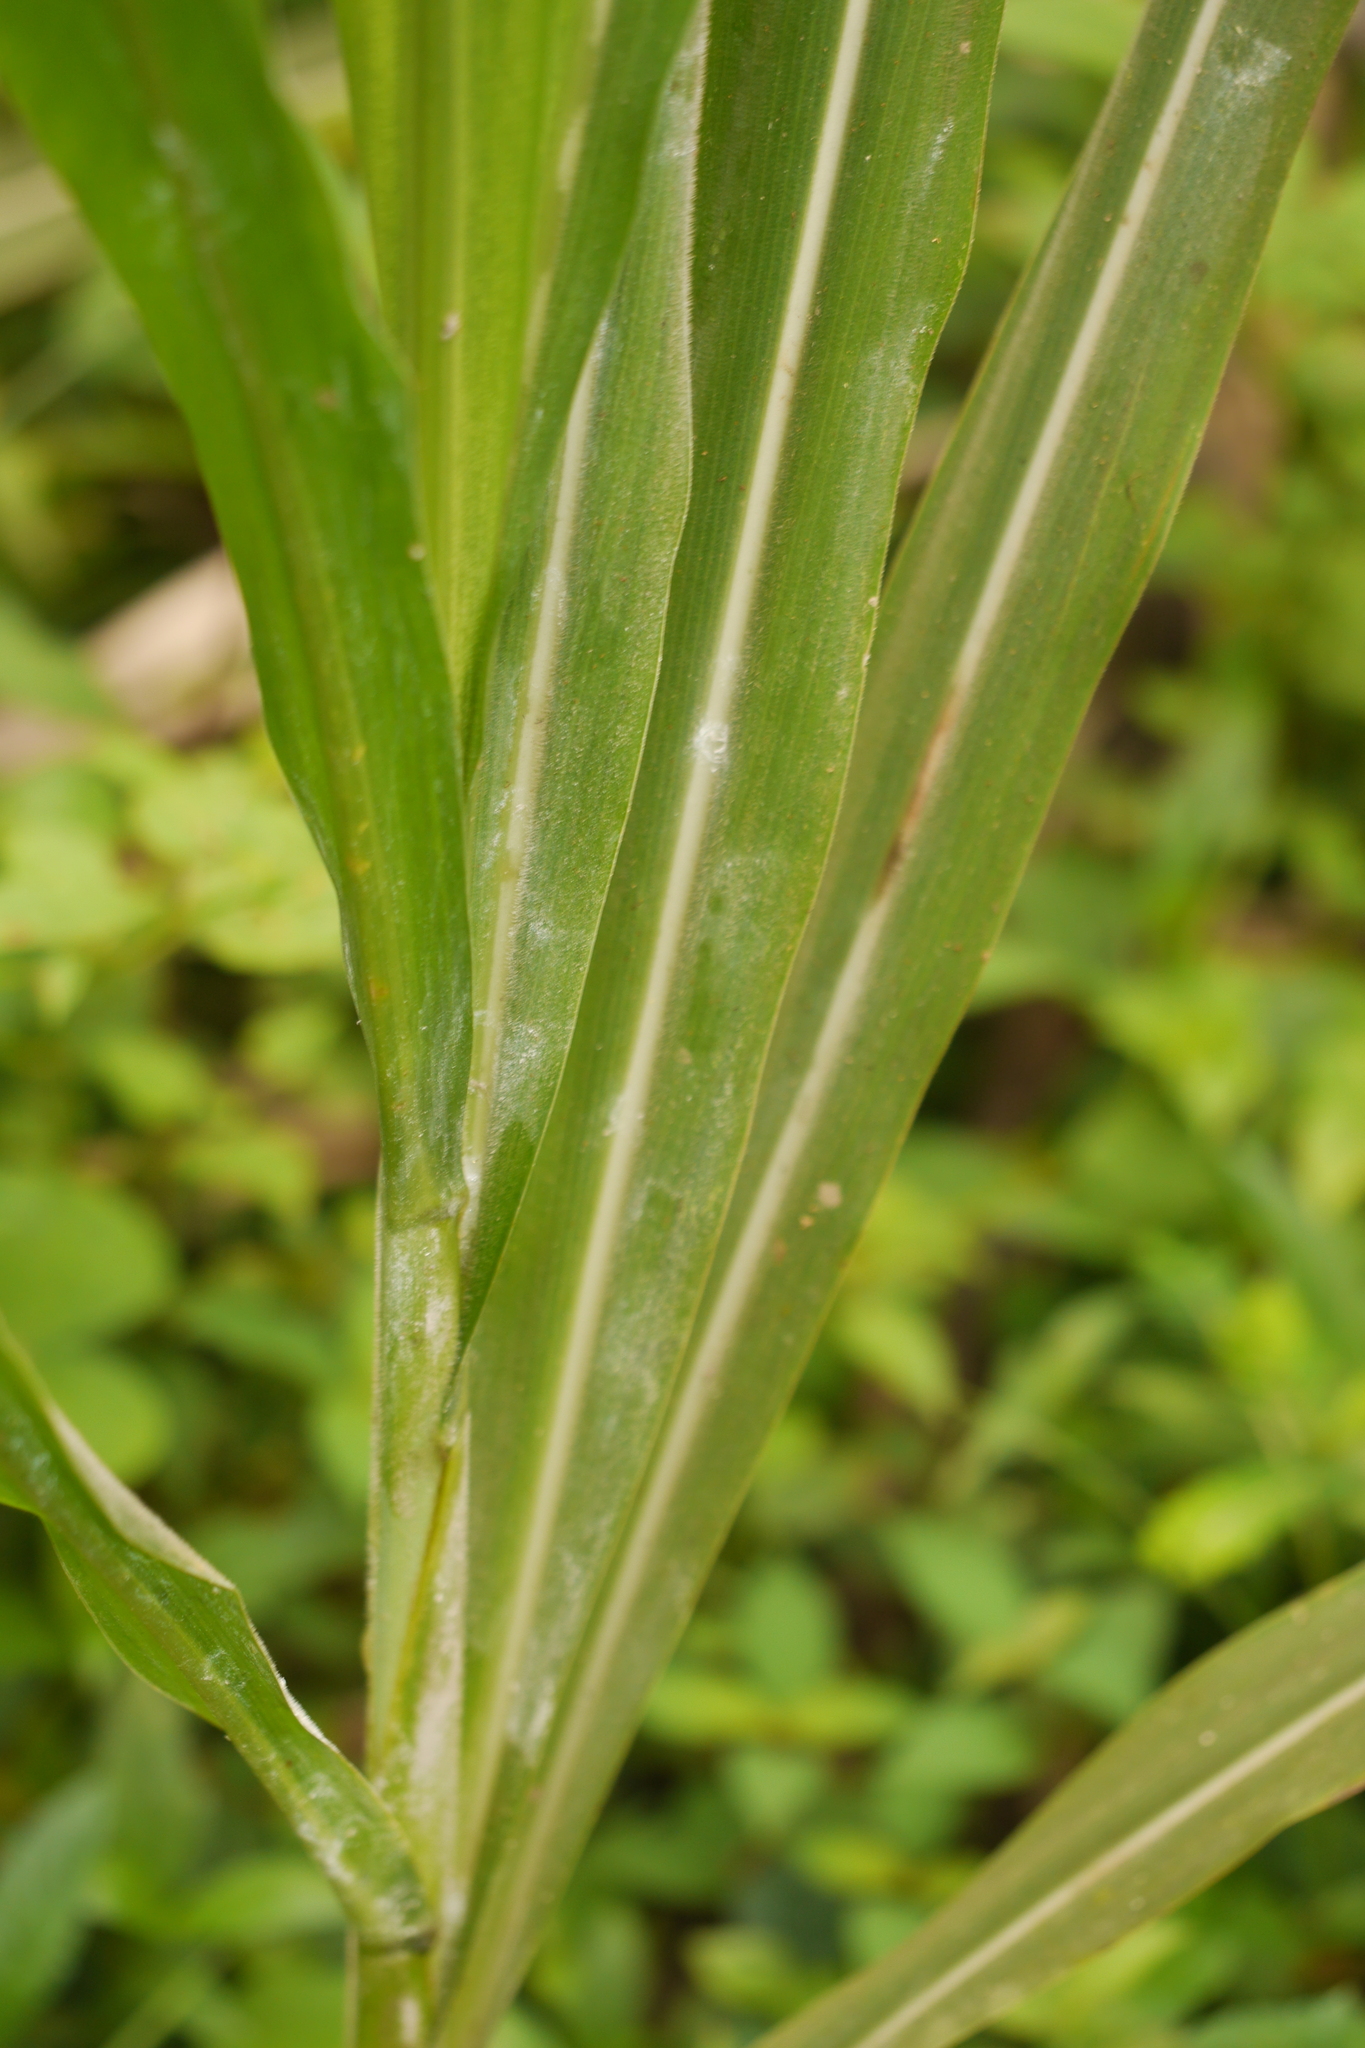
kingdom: Plantae
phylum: Tracheophyta
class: Liliopsida
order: Poales
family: Poaceae
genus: Gynerium
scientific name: Gynerium sagittatum
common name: Wild cane
